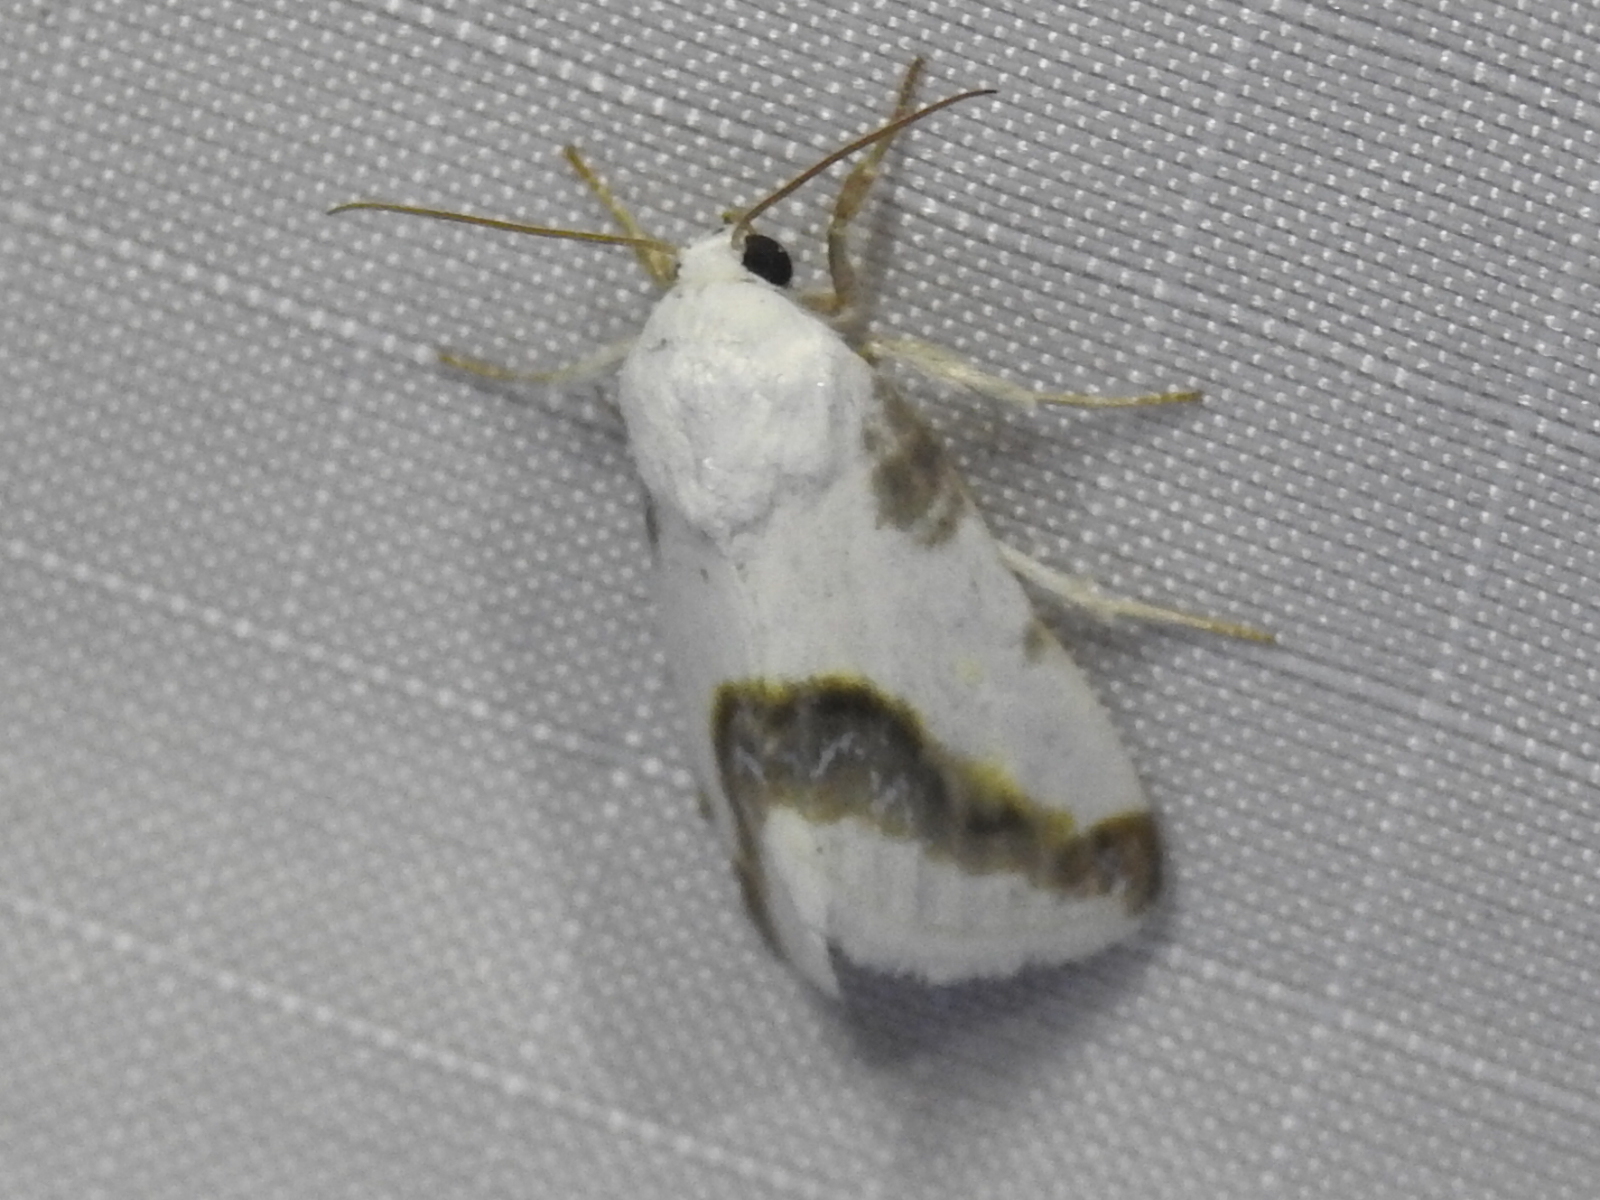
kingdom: Animalia
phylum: Arthropoda
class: Insecta
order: Lepidoptera
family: Noctuidae
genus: Acontia
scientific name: Acontia cretata
